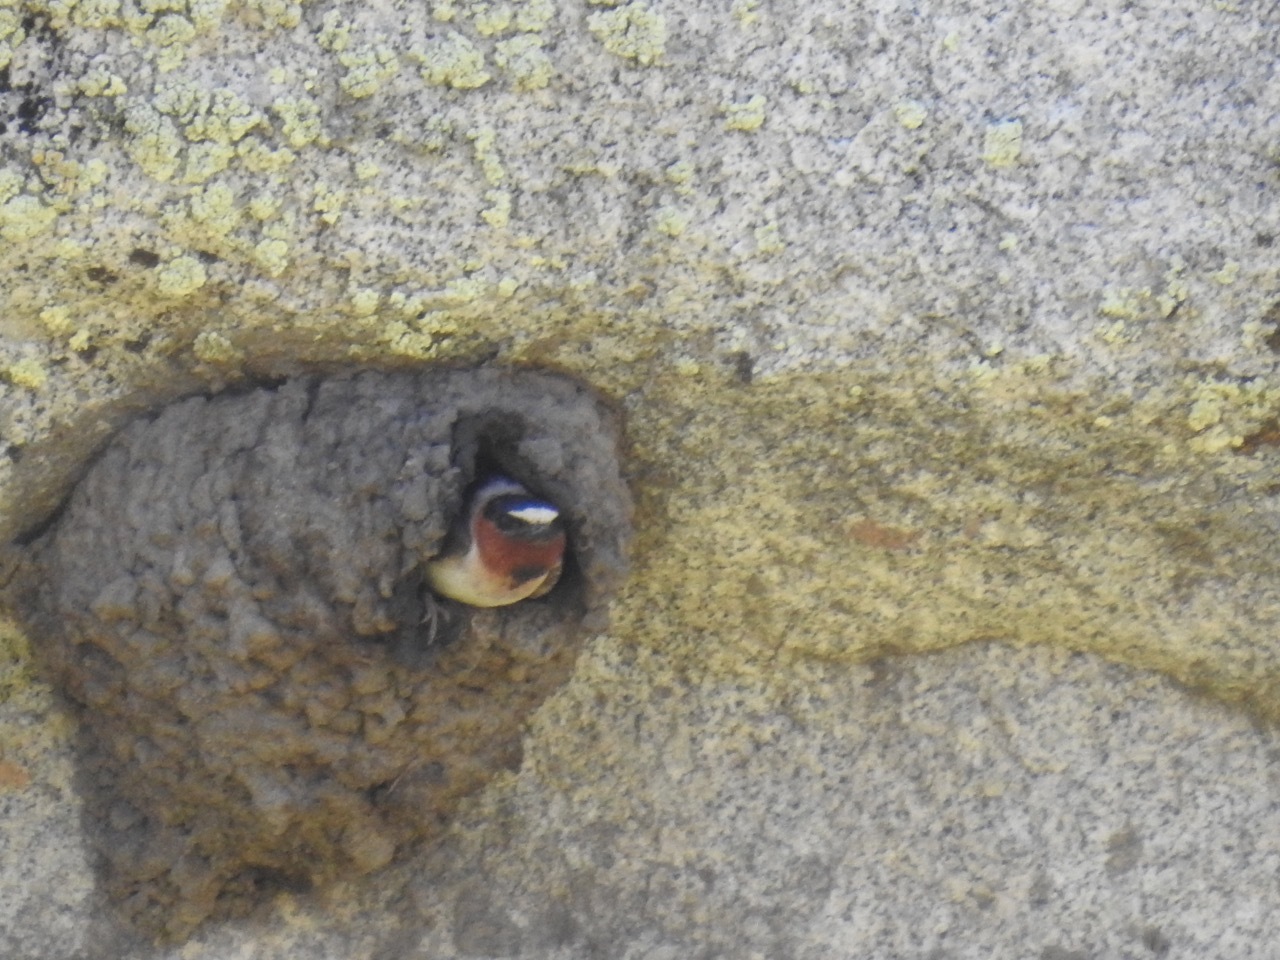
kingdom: Animalia
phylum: Chordata
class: Aves
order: Passeriformes
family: Hirundinidae
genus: Petrochelidon
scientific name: Petrochelidon pyrrhonota
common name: American cliff swallow
